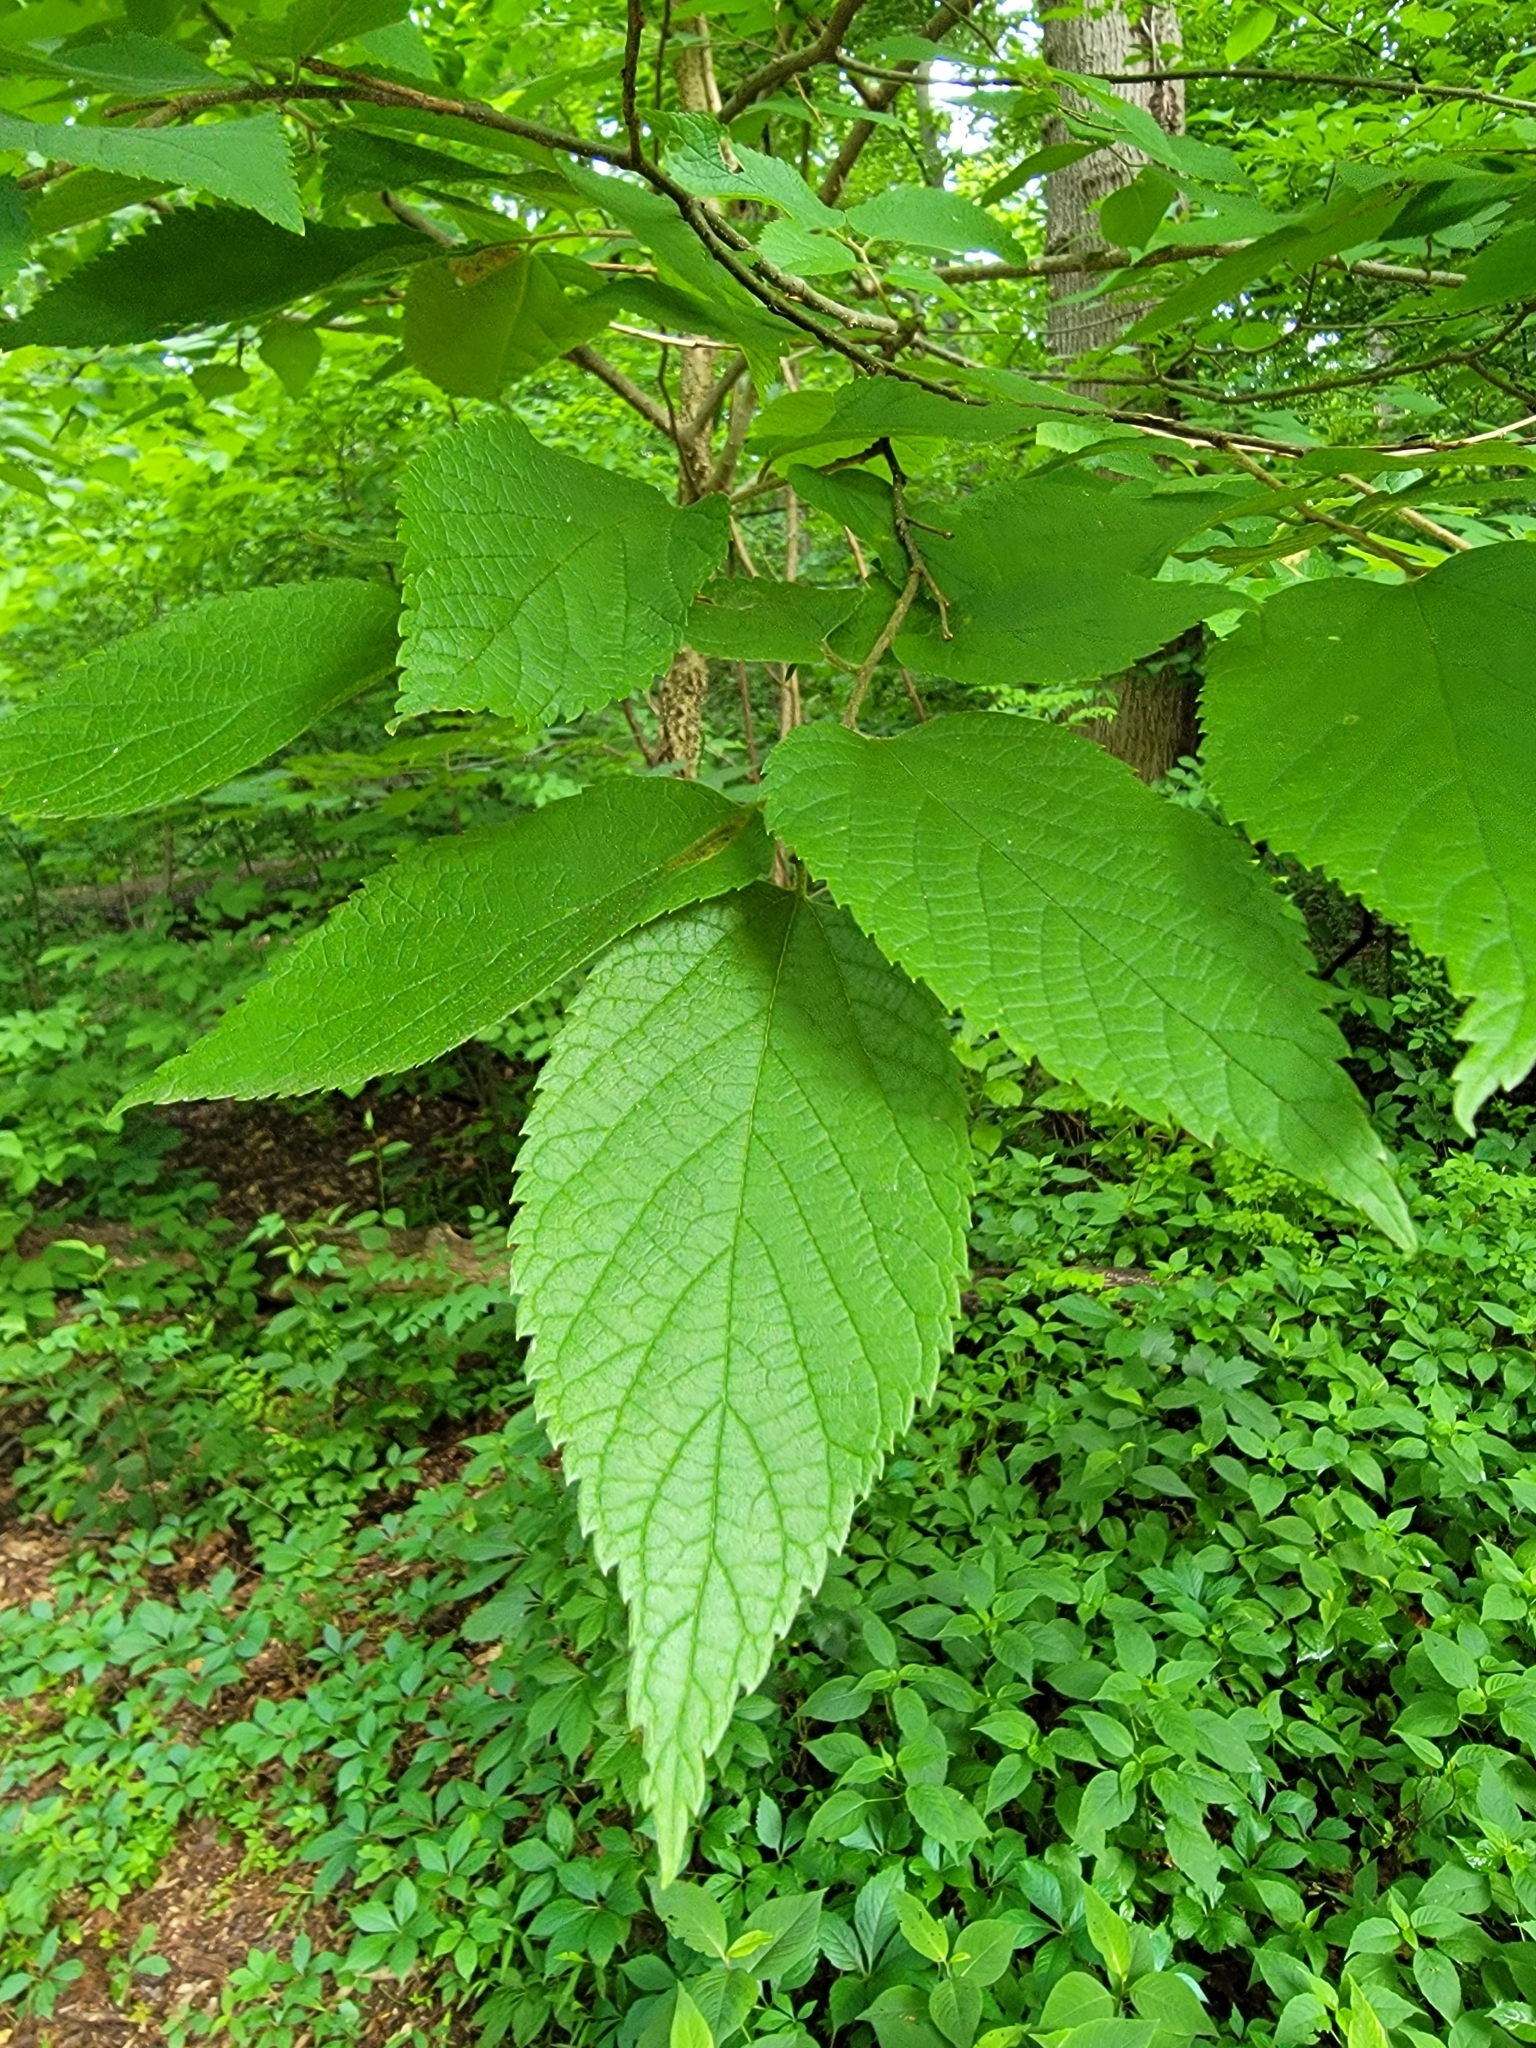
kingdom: Plantae
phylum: Tracheophyta
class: Magnoliopsida
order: Rosales
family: Cannabaceae
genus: Celtis
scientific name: Celtis occidentalis
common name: Common hackberry
